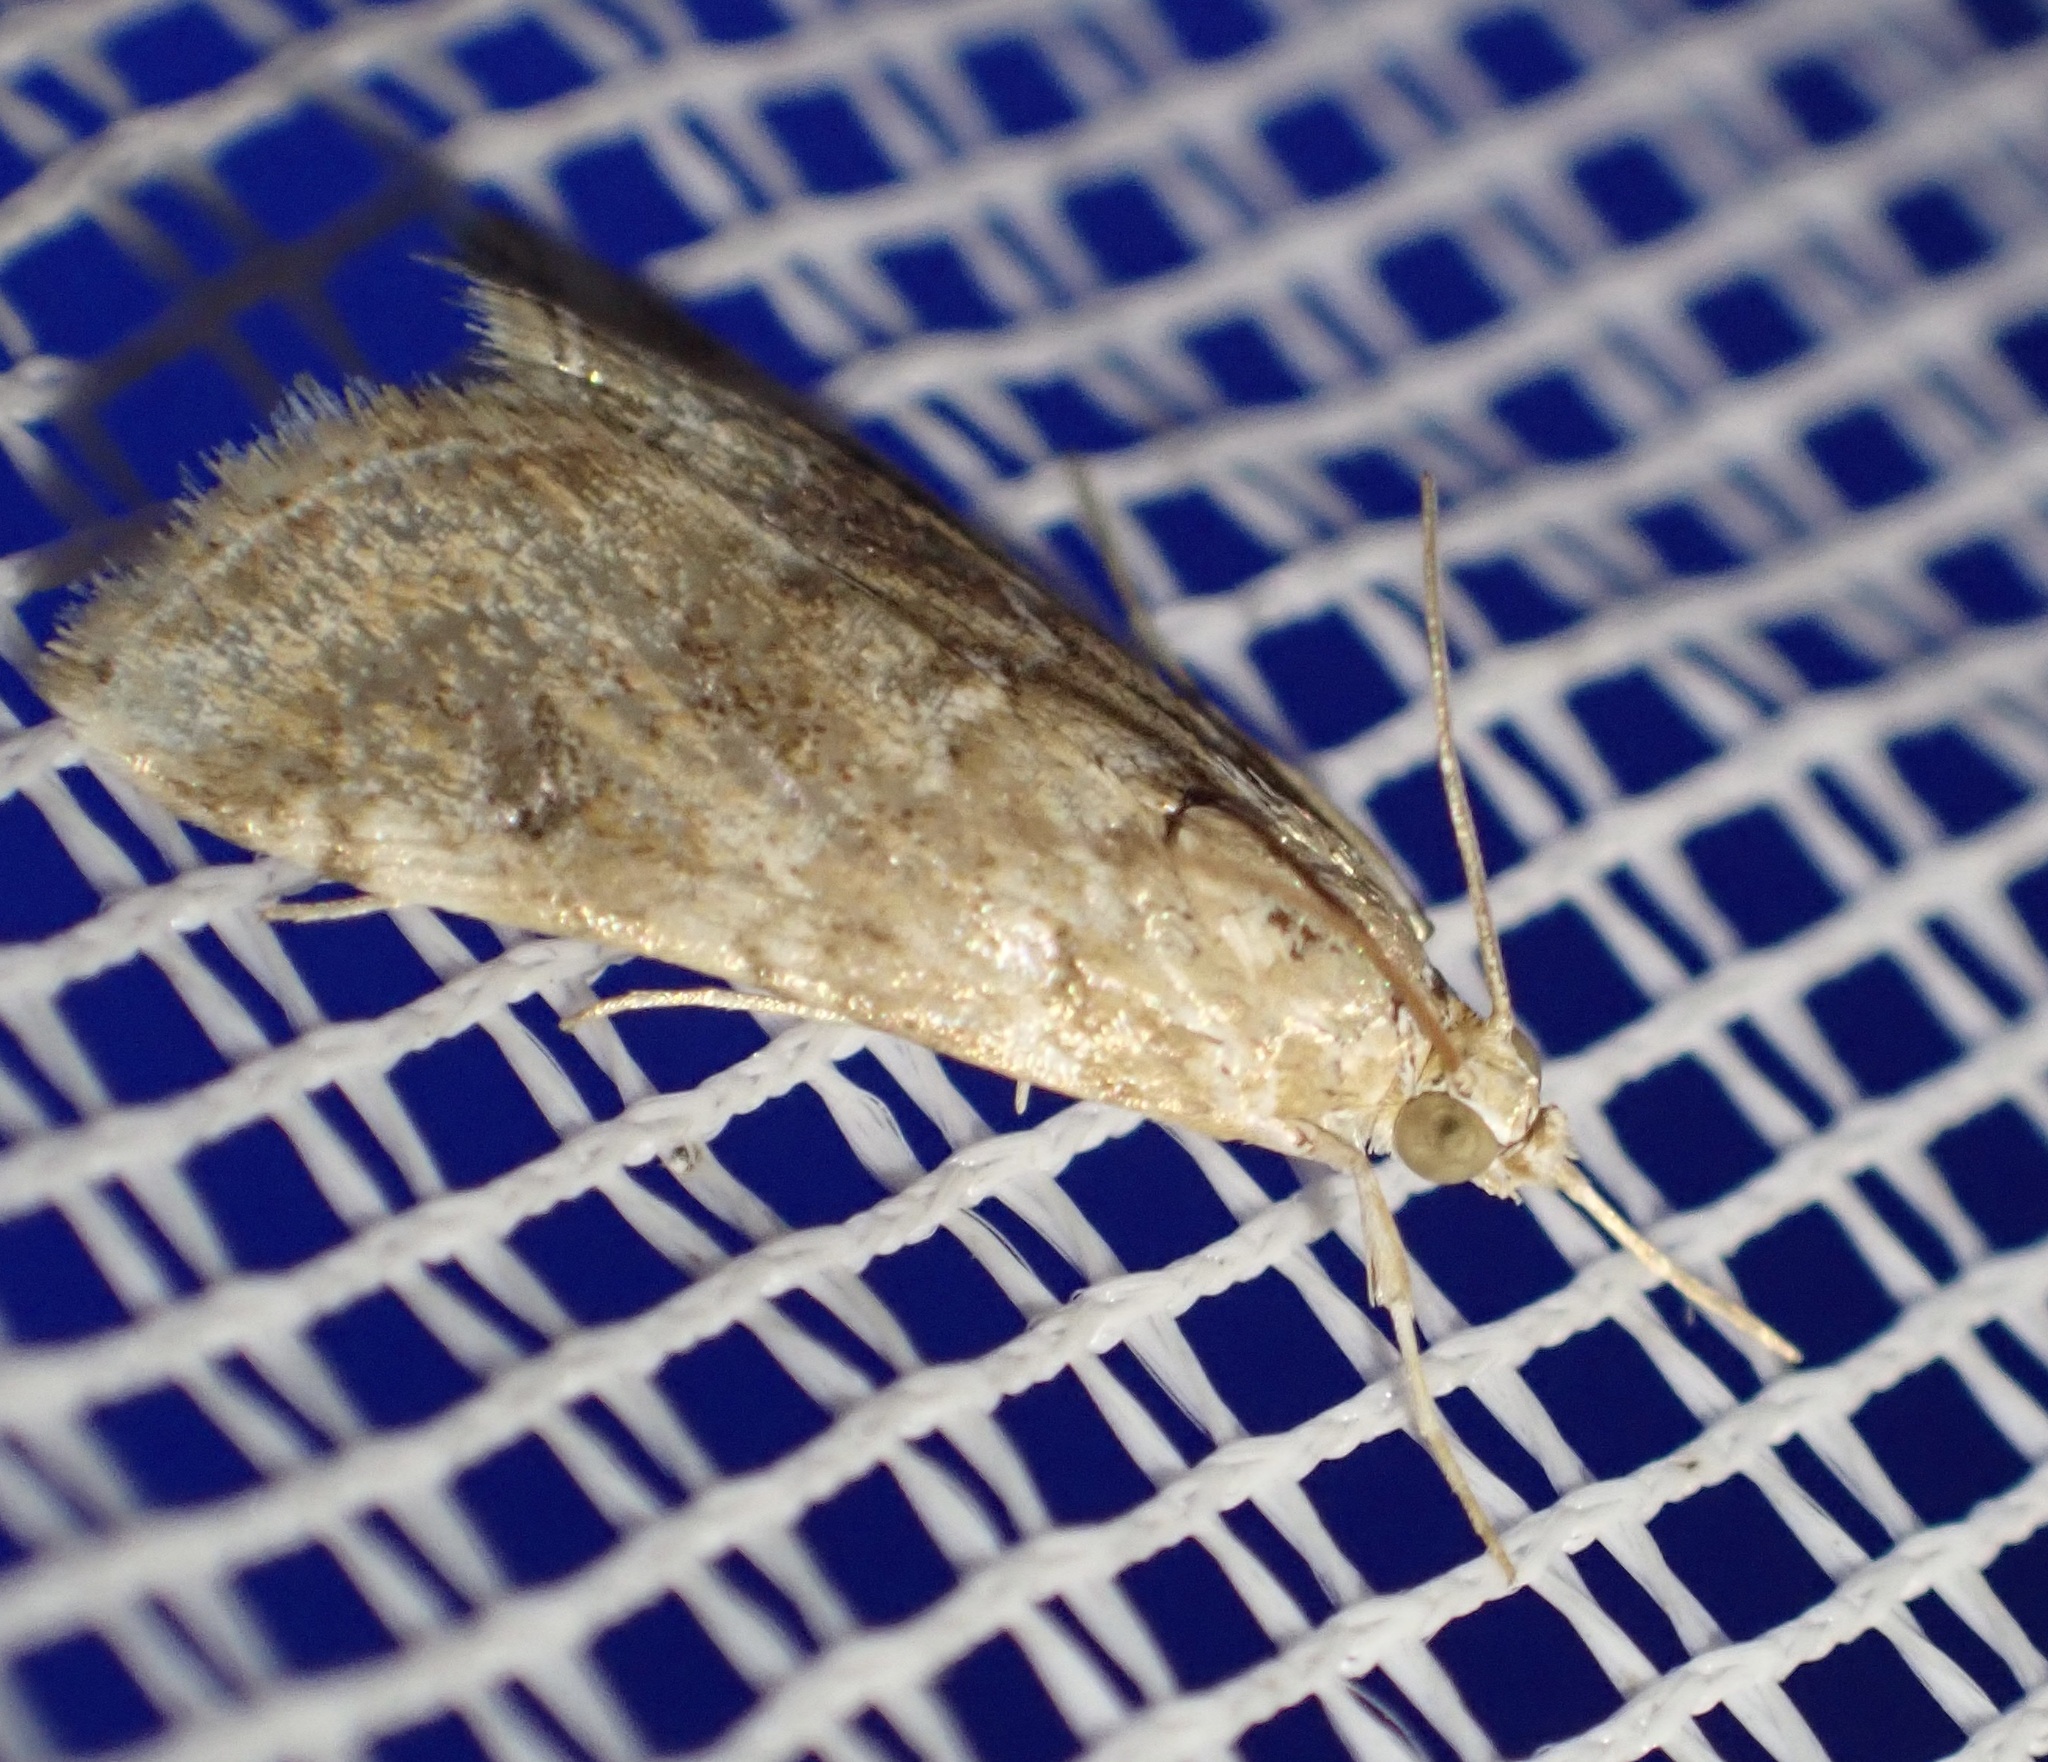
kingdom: Animalia
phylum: Arthropoda
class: Insecta
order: Lepidoptera
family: Crambidae
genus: Hellula
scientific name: Hellula undalis
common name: Cabbage webworm
